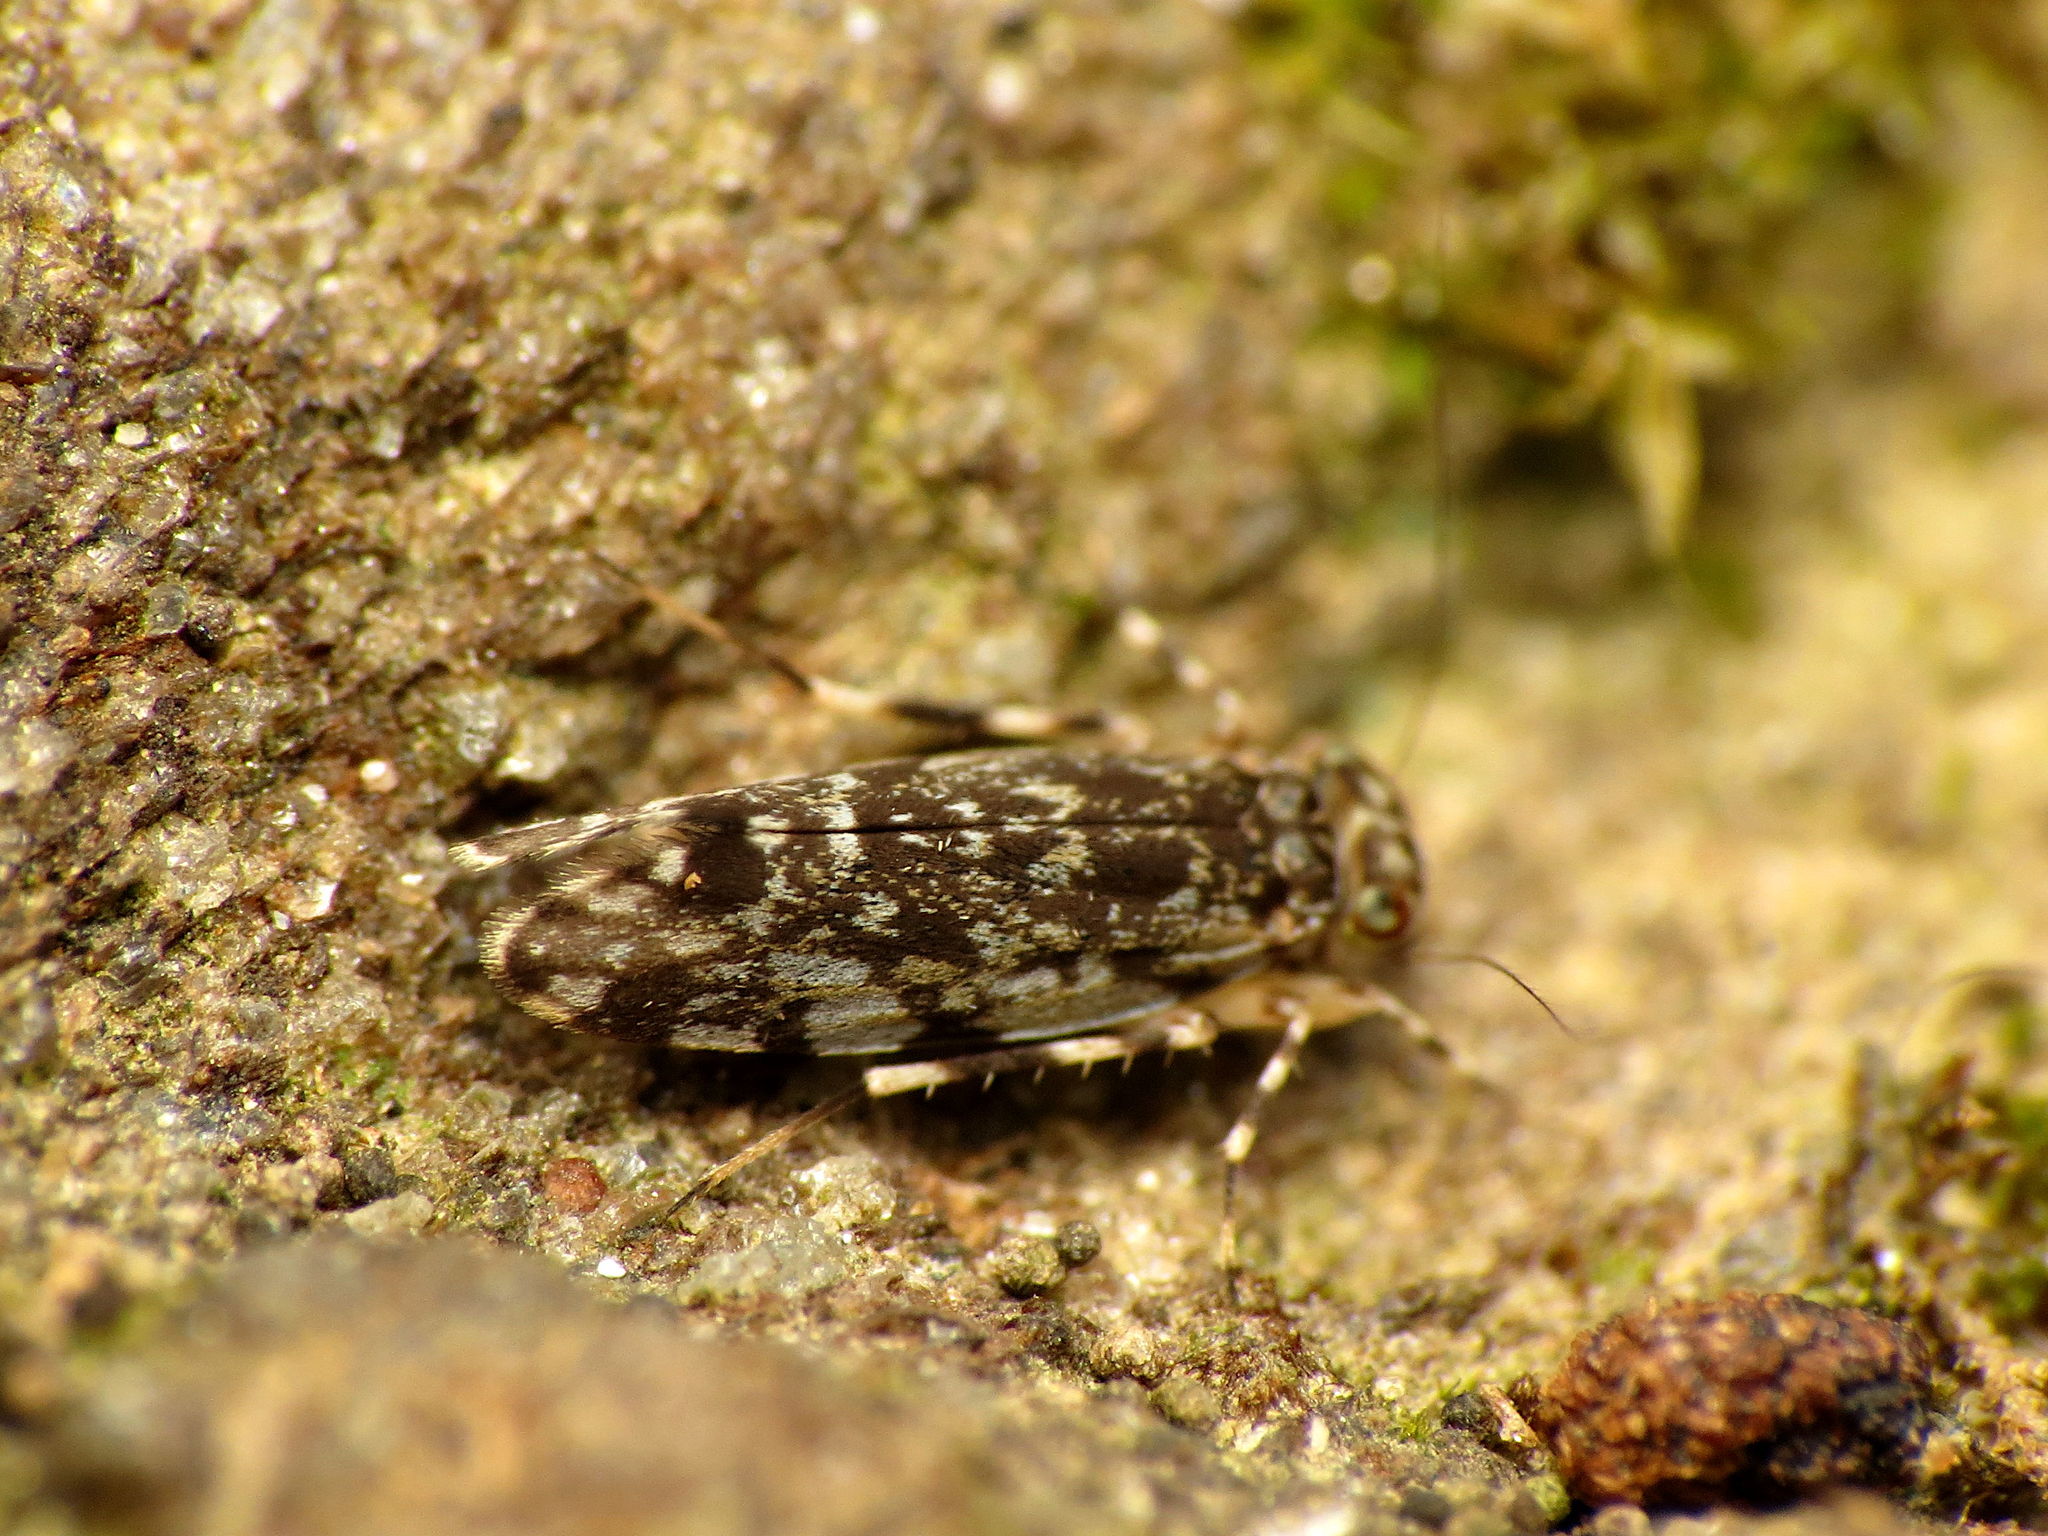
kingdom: Animalia
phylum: Arthropoda
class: Insecta
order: Psocodea
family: Amphientomidae
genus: Stimulopalpus
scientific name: Stimulopalpus japonicus
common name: Tropical bark louse
